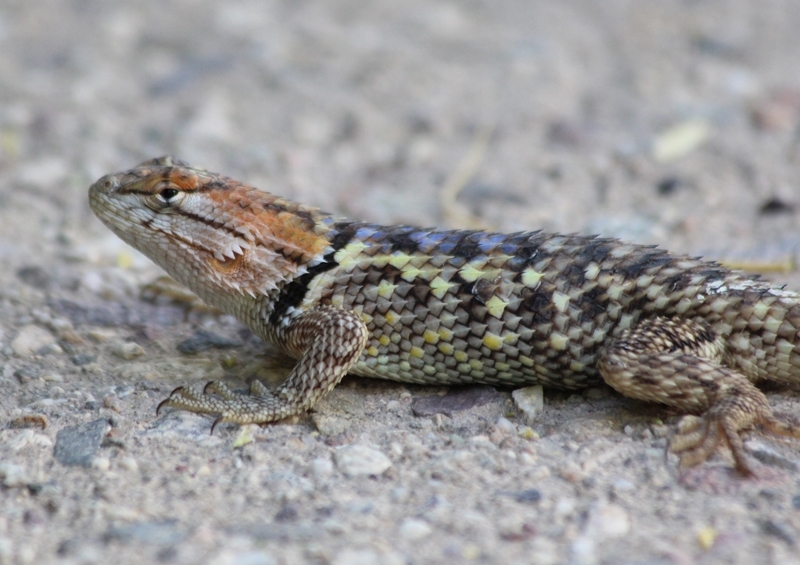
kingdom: Animalia
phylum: Chordata
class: Squamata
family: Phrynosomatidae
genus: Sceloporus
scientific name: Sceloporus magister
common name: Desert spiny lizard
